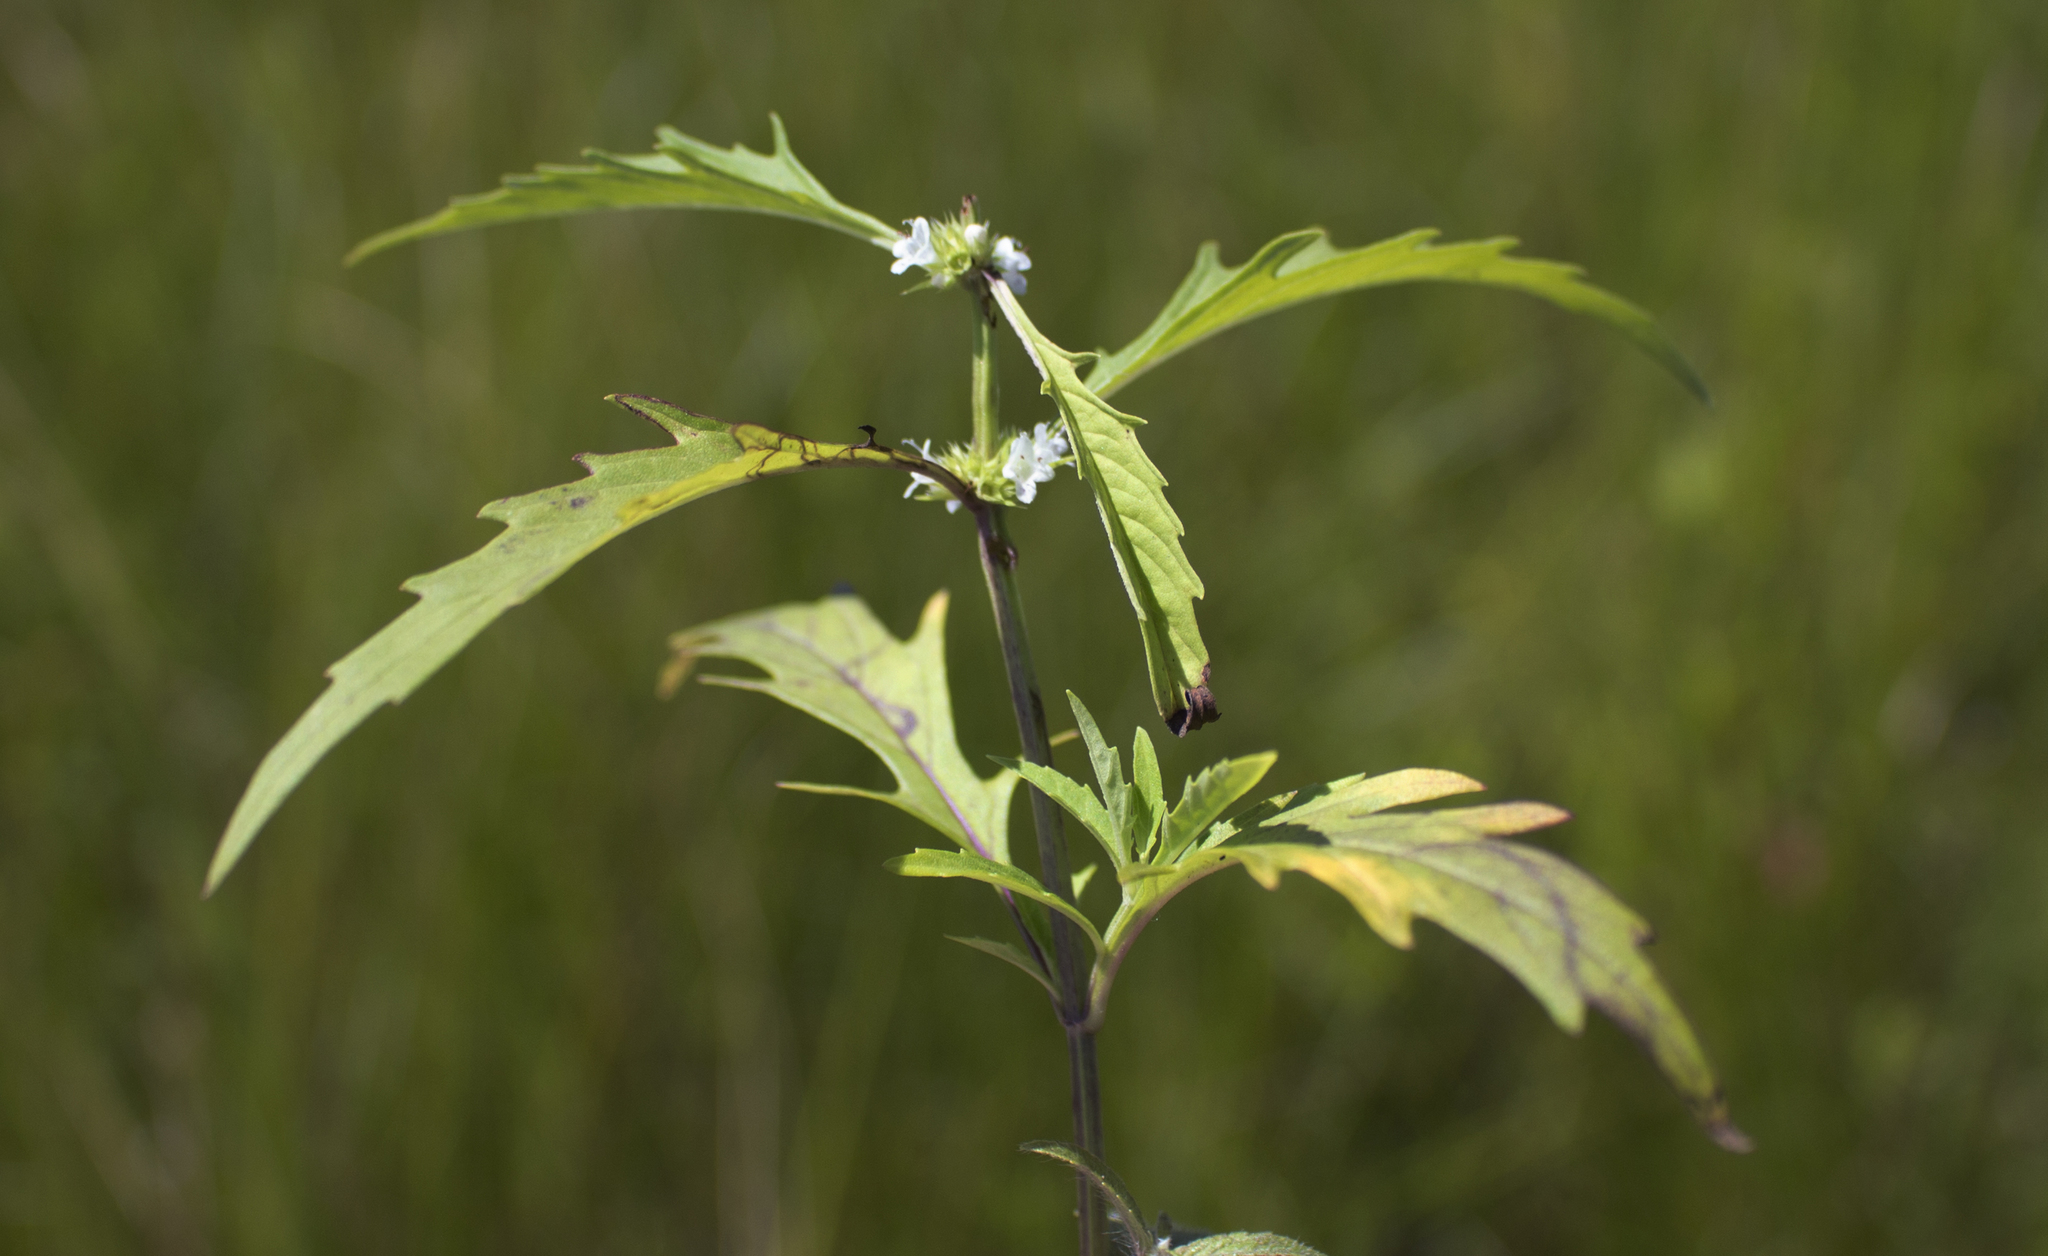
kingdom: Plantae
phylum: Tracheophyta
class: Magnoliopsida
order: Lamiales
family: Lamiaceae
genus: Lycopus
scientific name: Lycopus americanus
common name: American bugleweed
